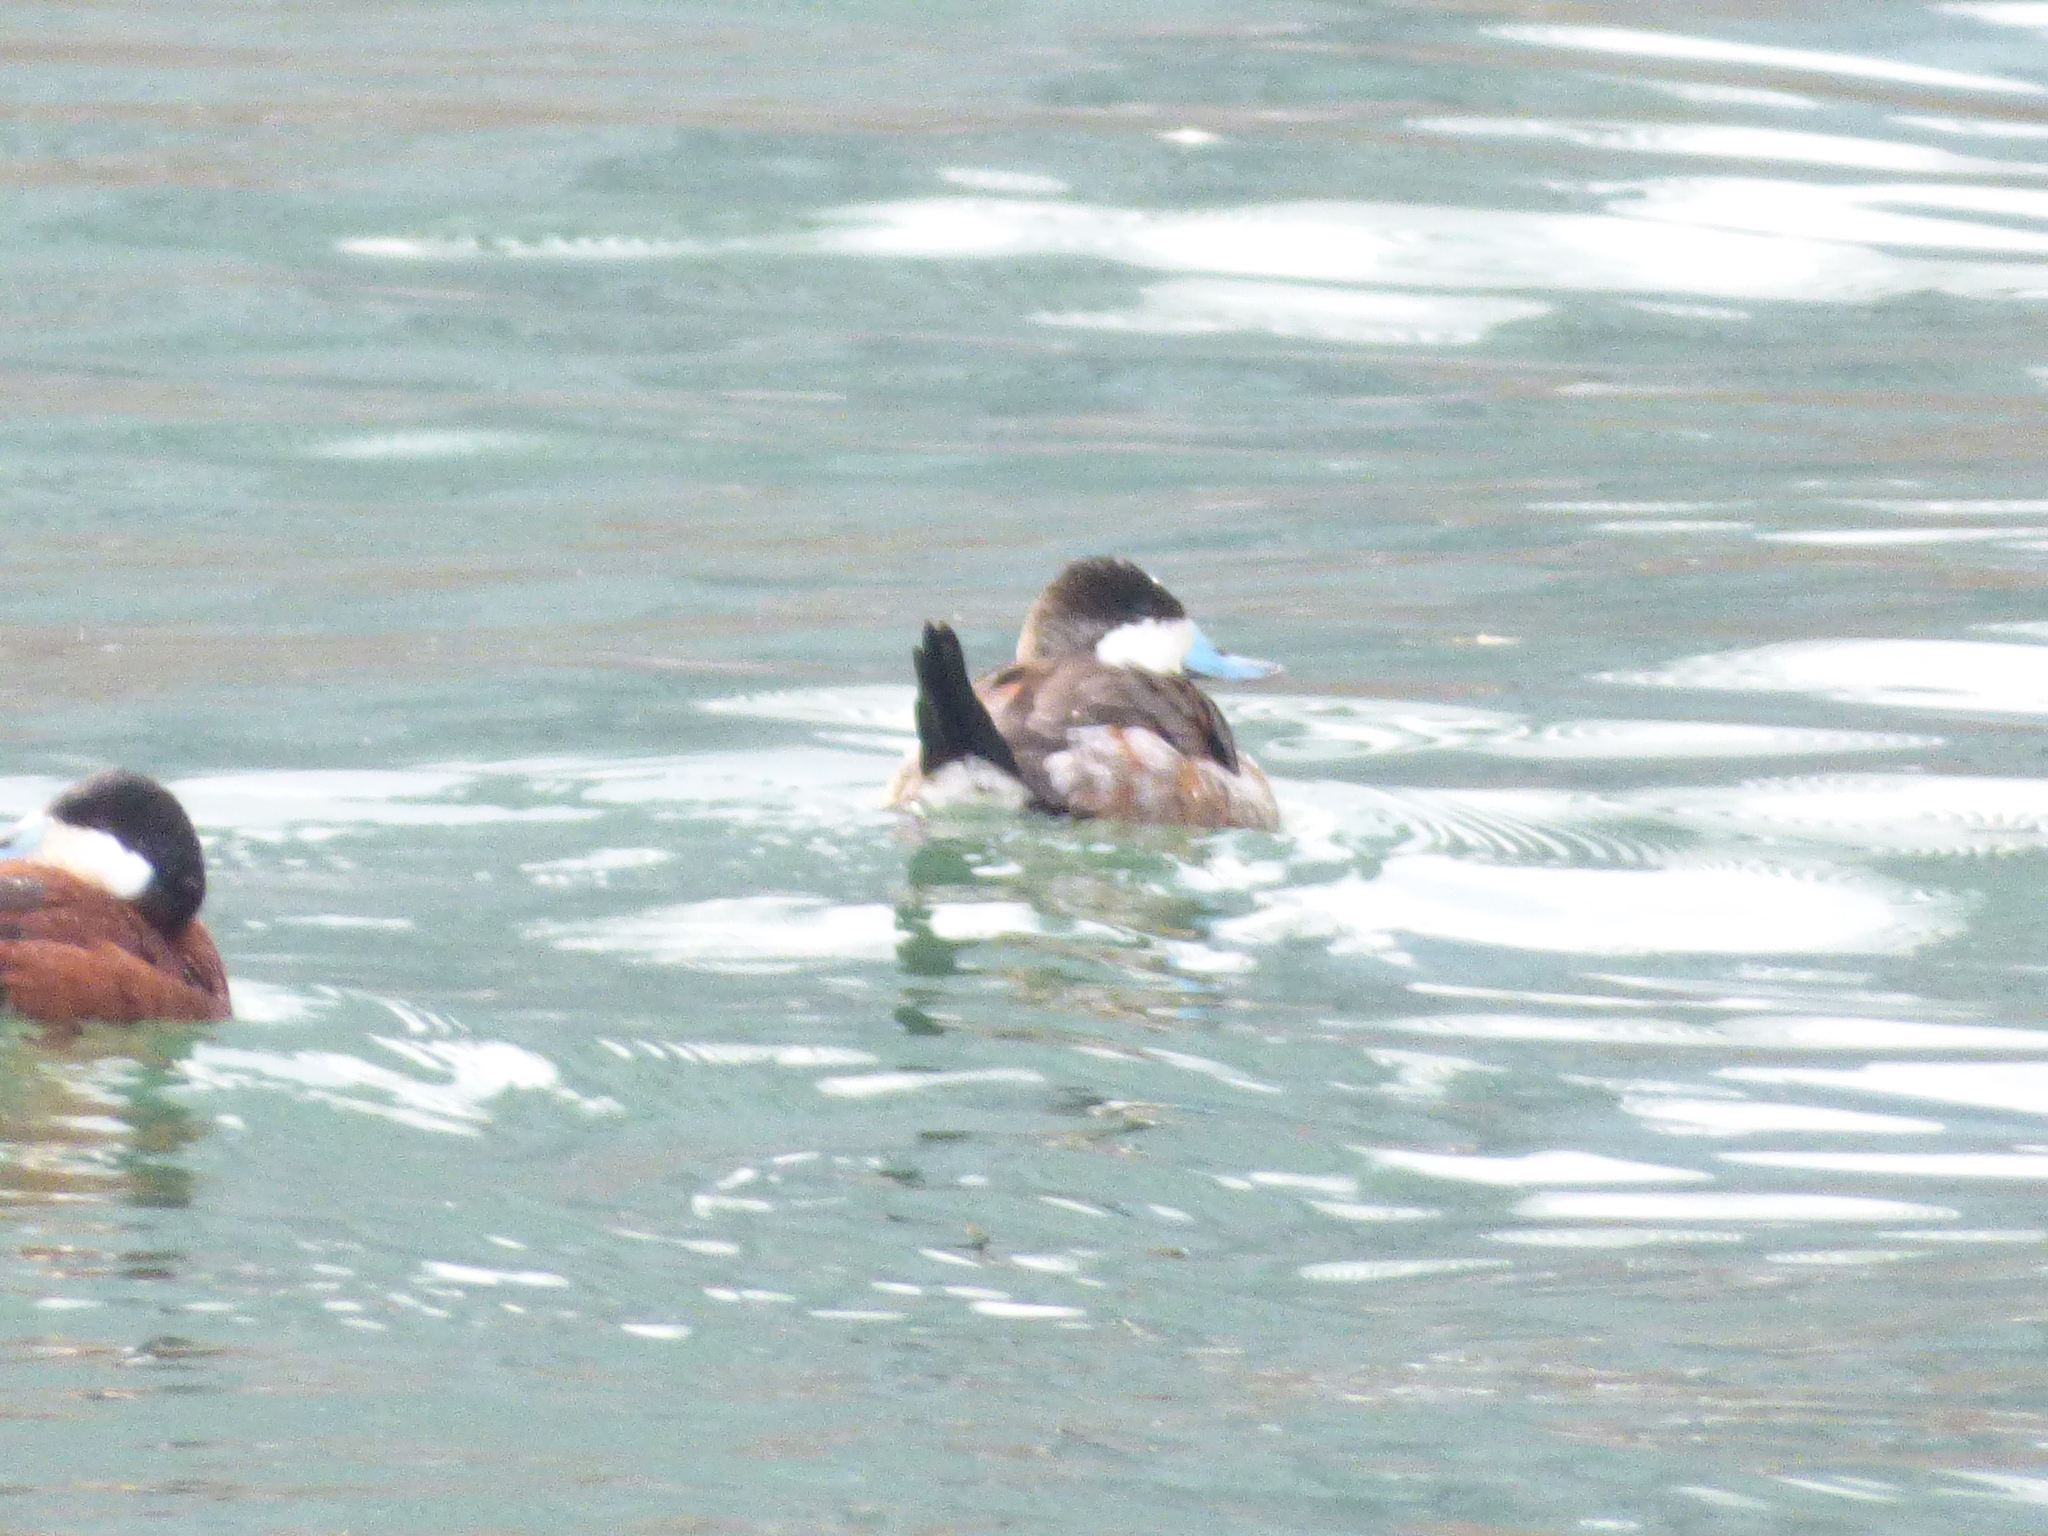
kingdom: Animalia
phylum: Chordata
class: Aves
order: Anseriformes
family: Anatidae
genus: Oxyura
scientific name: Oxyura jamaicensis
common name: Ruddy duck
